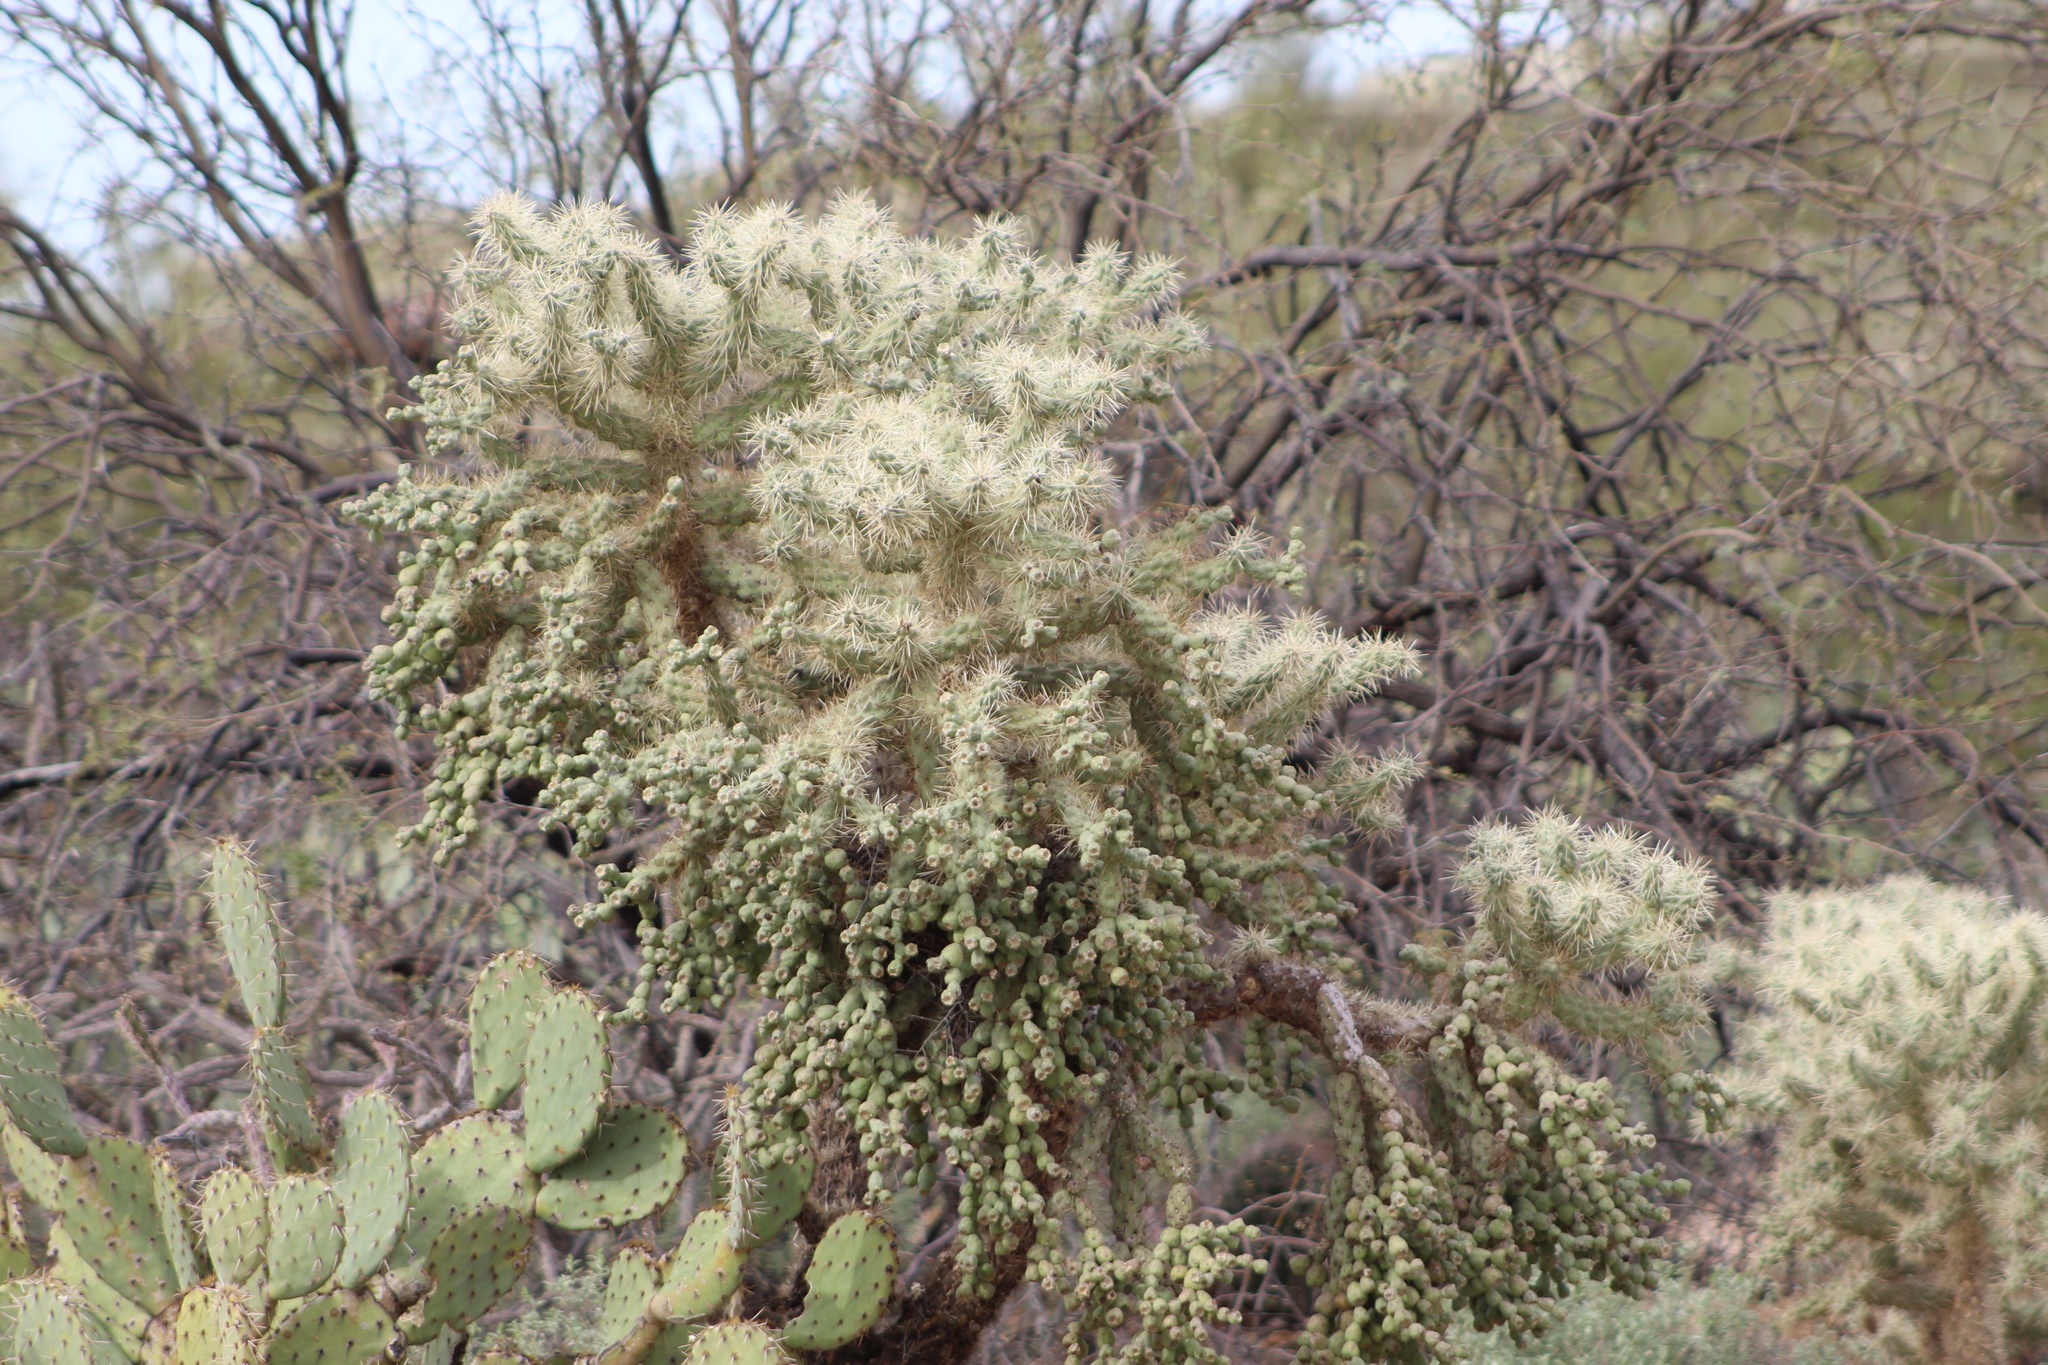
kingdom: Plantae
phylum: Tracheophyta
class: Magnoliopsida
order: Caryophyllales
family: Cactaceae
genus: Cylindropuntia
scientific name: Cylindropuntia fulgida
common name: Jumping cholla
